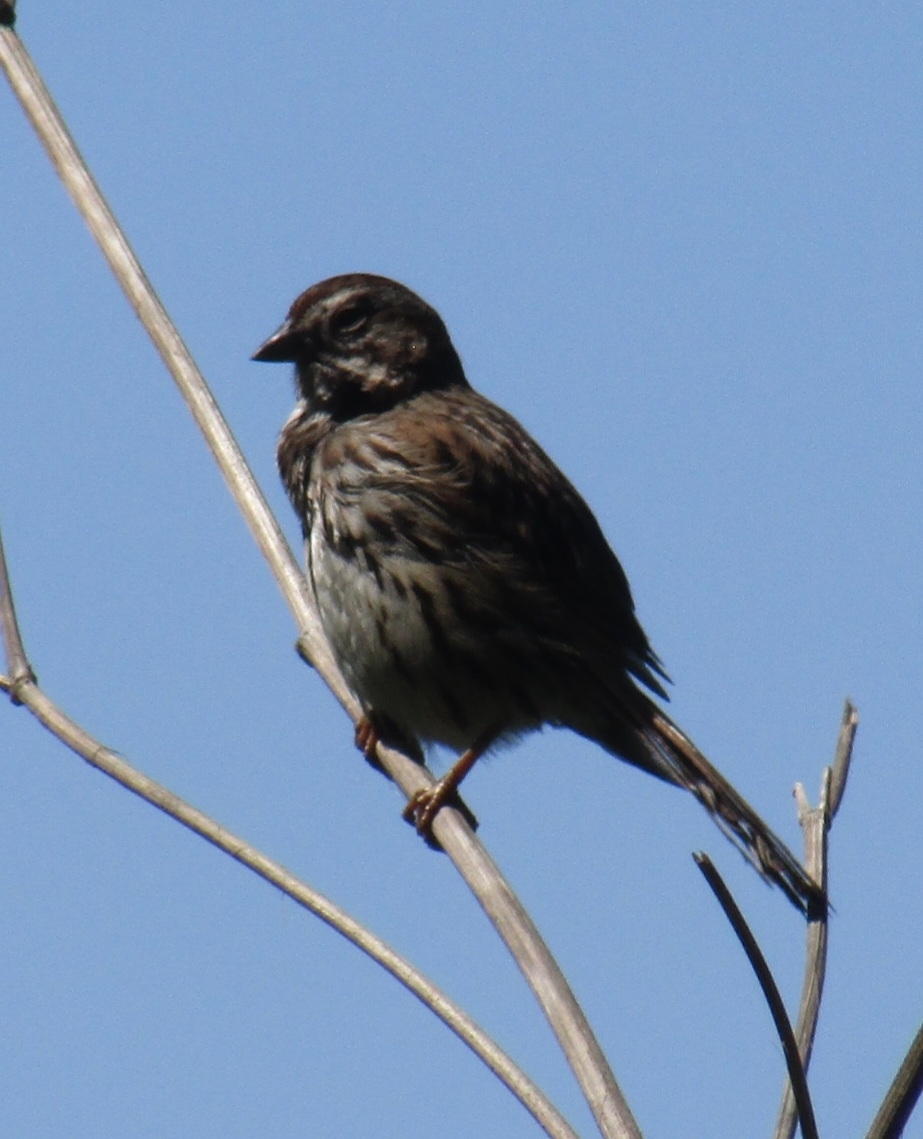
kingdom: Animalia
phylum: Chordata
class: Aves
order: Passeriformes
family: Passerellidae
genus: Melospiza
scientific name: Melospiza melodia
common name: Song sparrow
